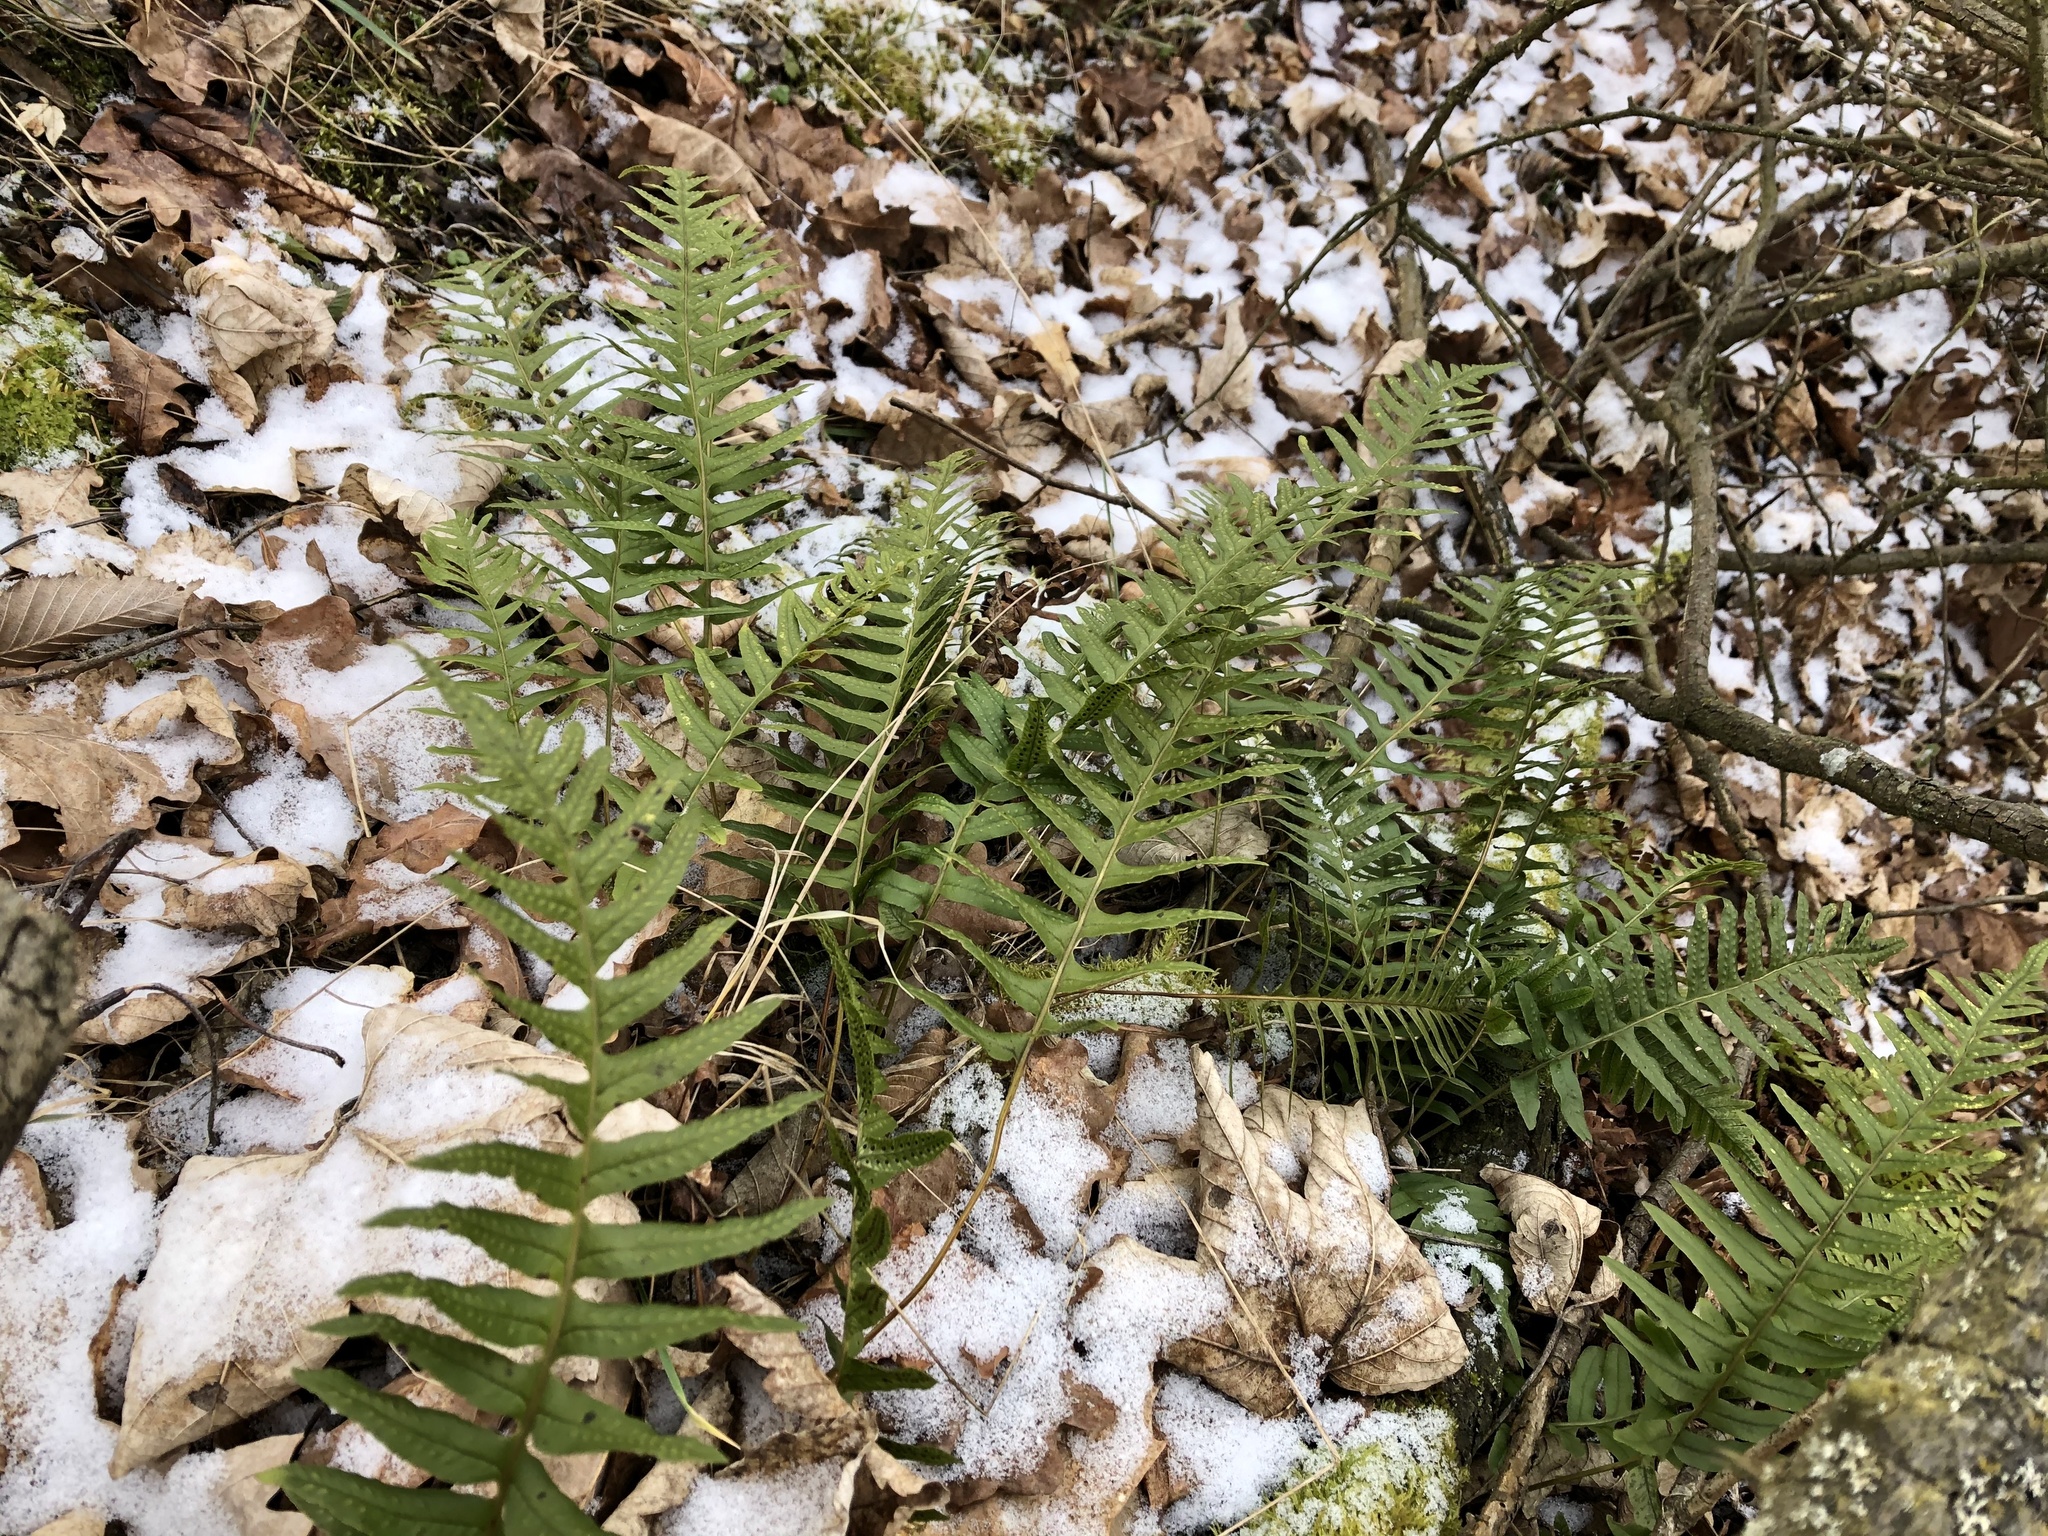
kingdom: Plantae
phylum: Tracheophyta
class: Polypodiopsida
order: Polypodiales
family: Polypodiaceae
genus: Polypodium
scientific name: Polypodium vulgare
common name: Common polypody
